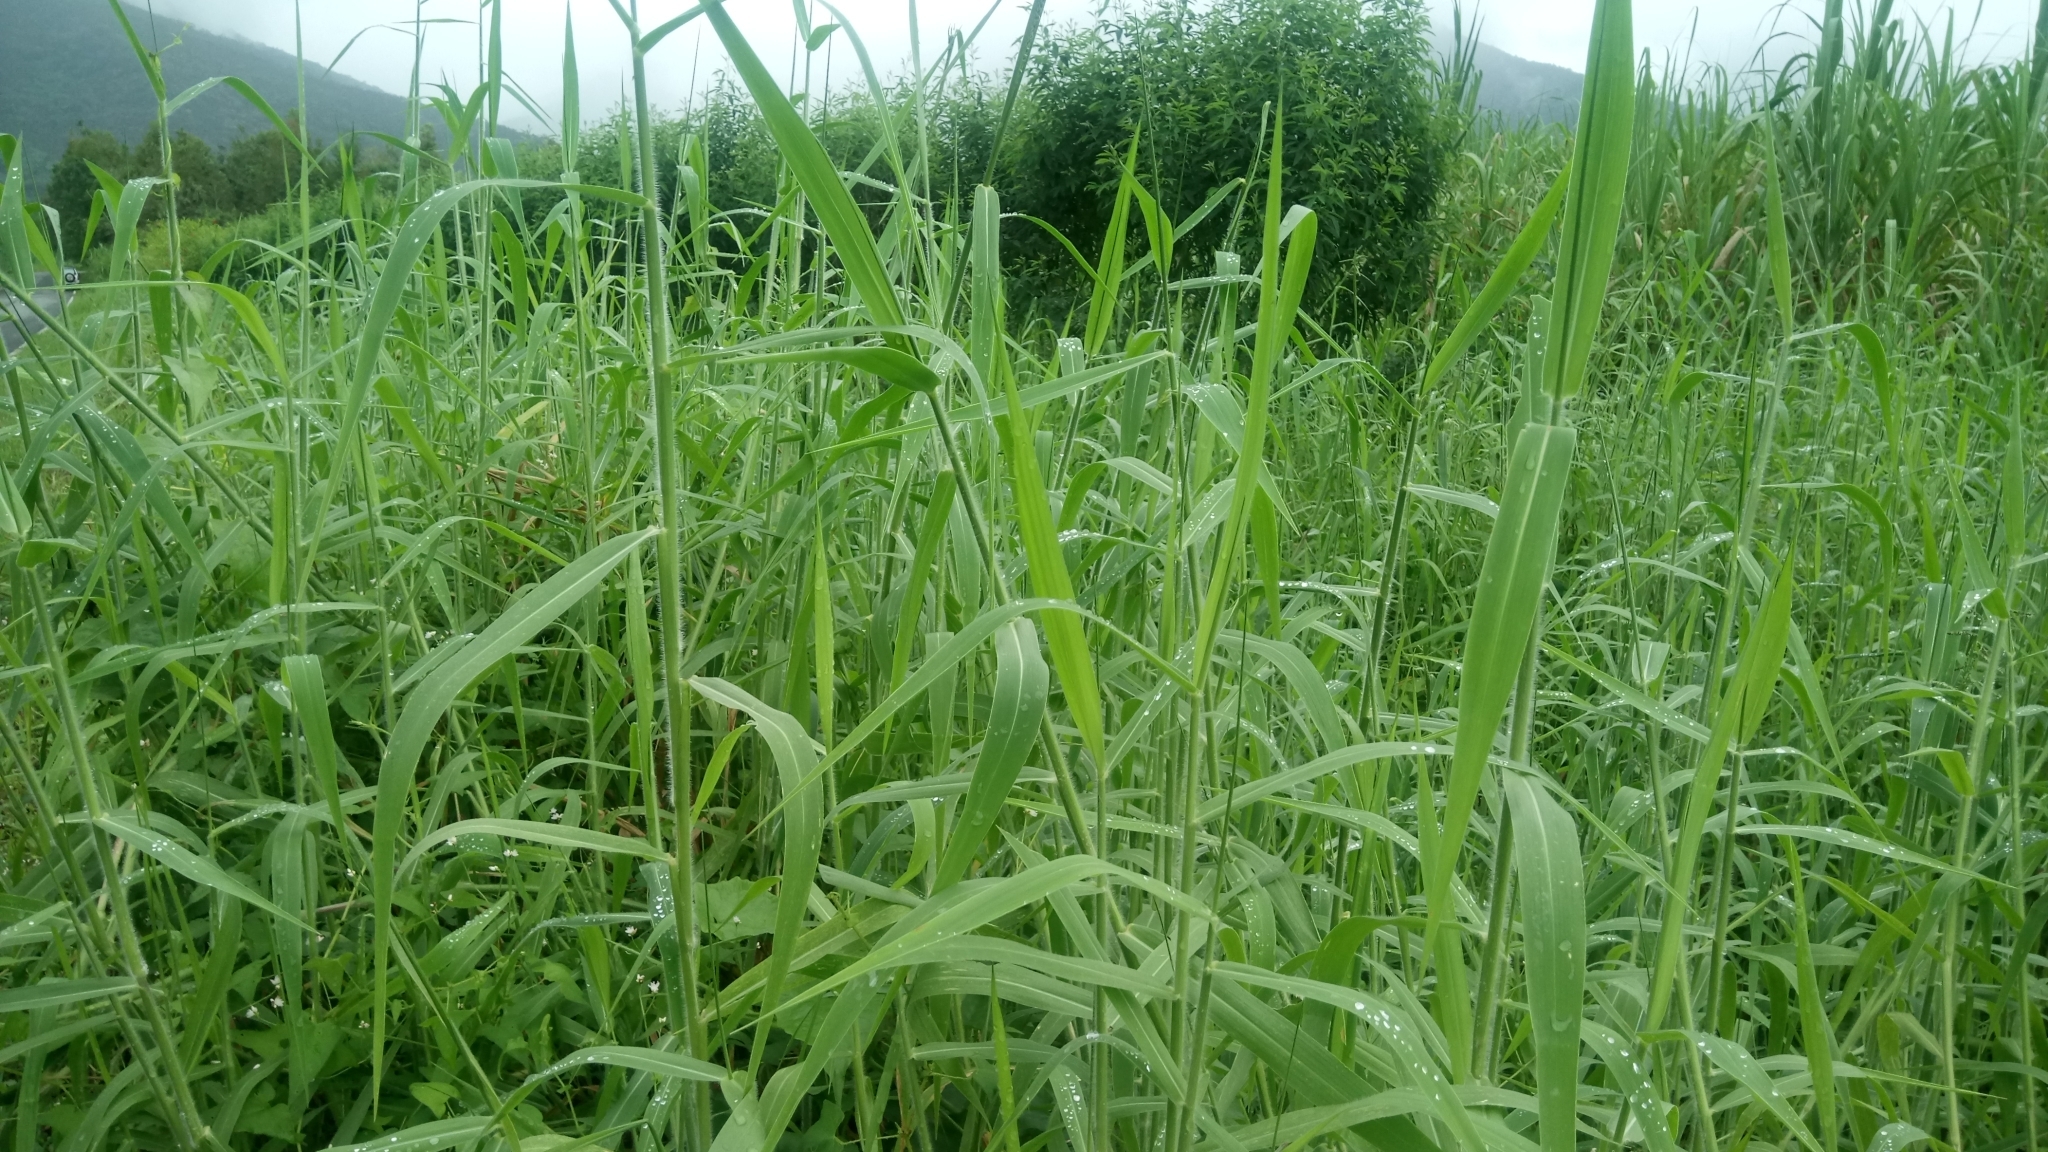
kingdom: Plantae
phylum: Tracheophyta
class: Liliopsida
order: Poales
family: Poaceae
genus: Urochloa
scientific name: Urochloa mutica
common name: Para grass
